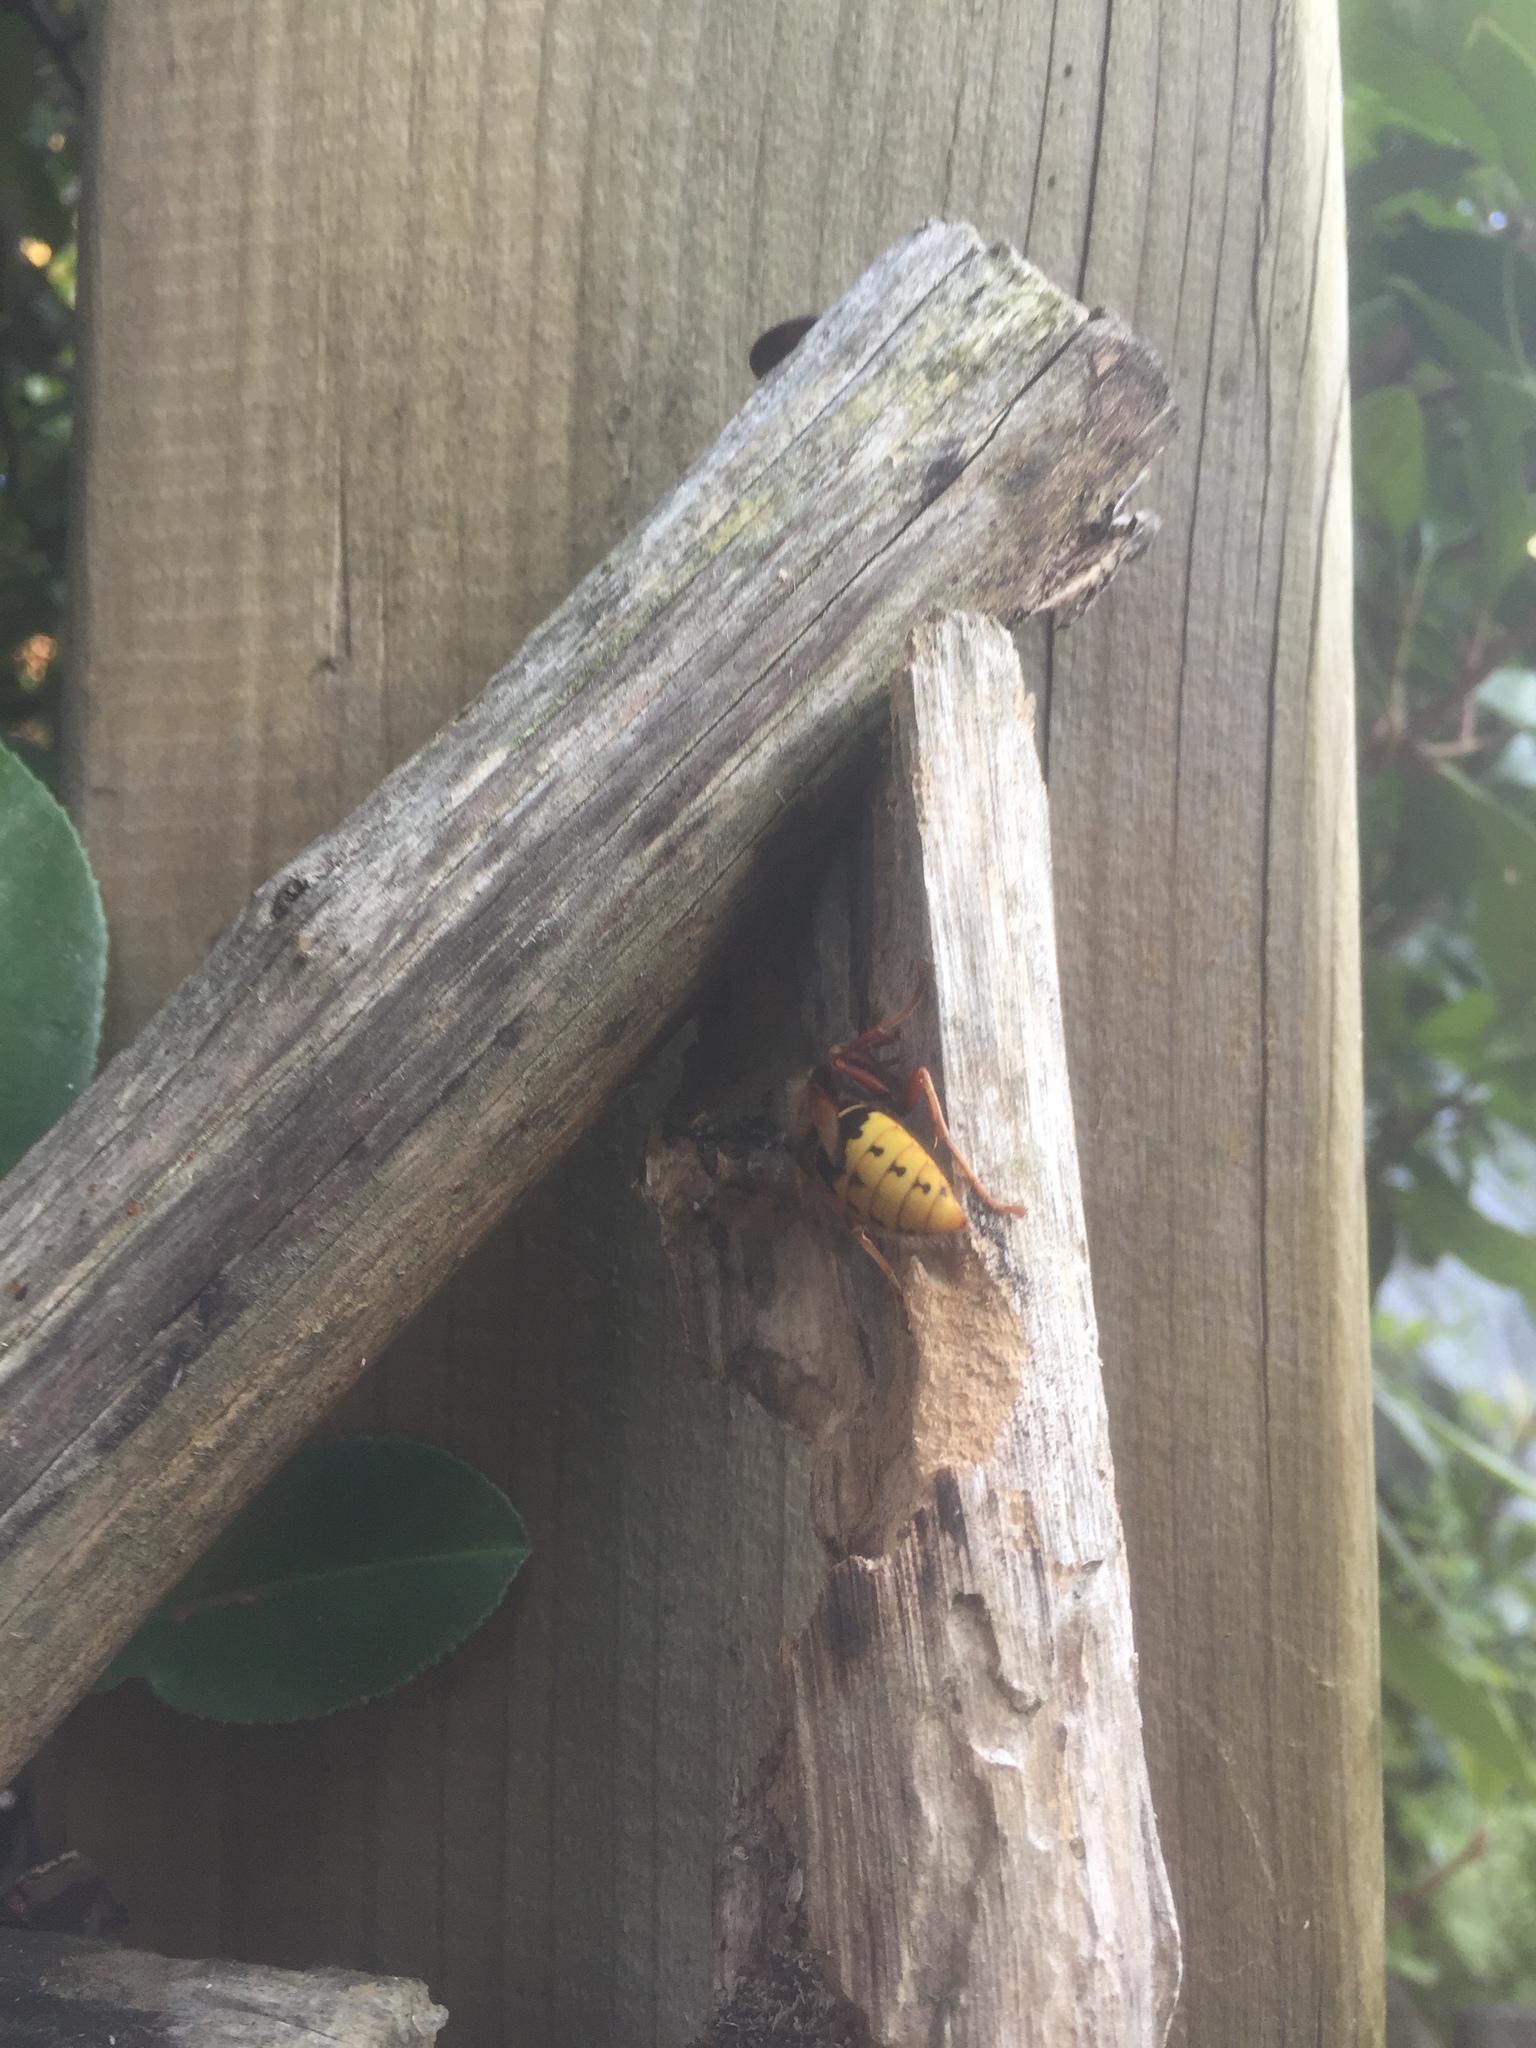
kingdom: Animalia
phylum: Arthropoda
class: Insecta
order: Hymenoptera
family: Vespidae
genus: Vespa
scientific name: Vespa crabro
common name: Hornet
